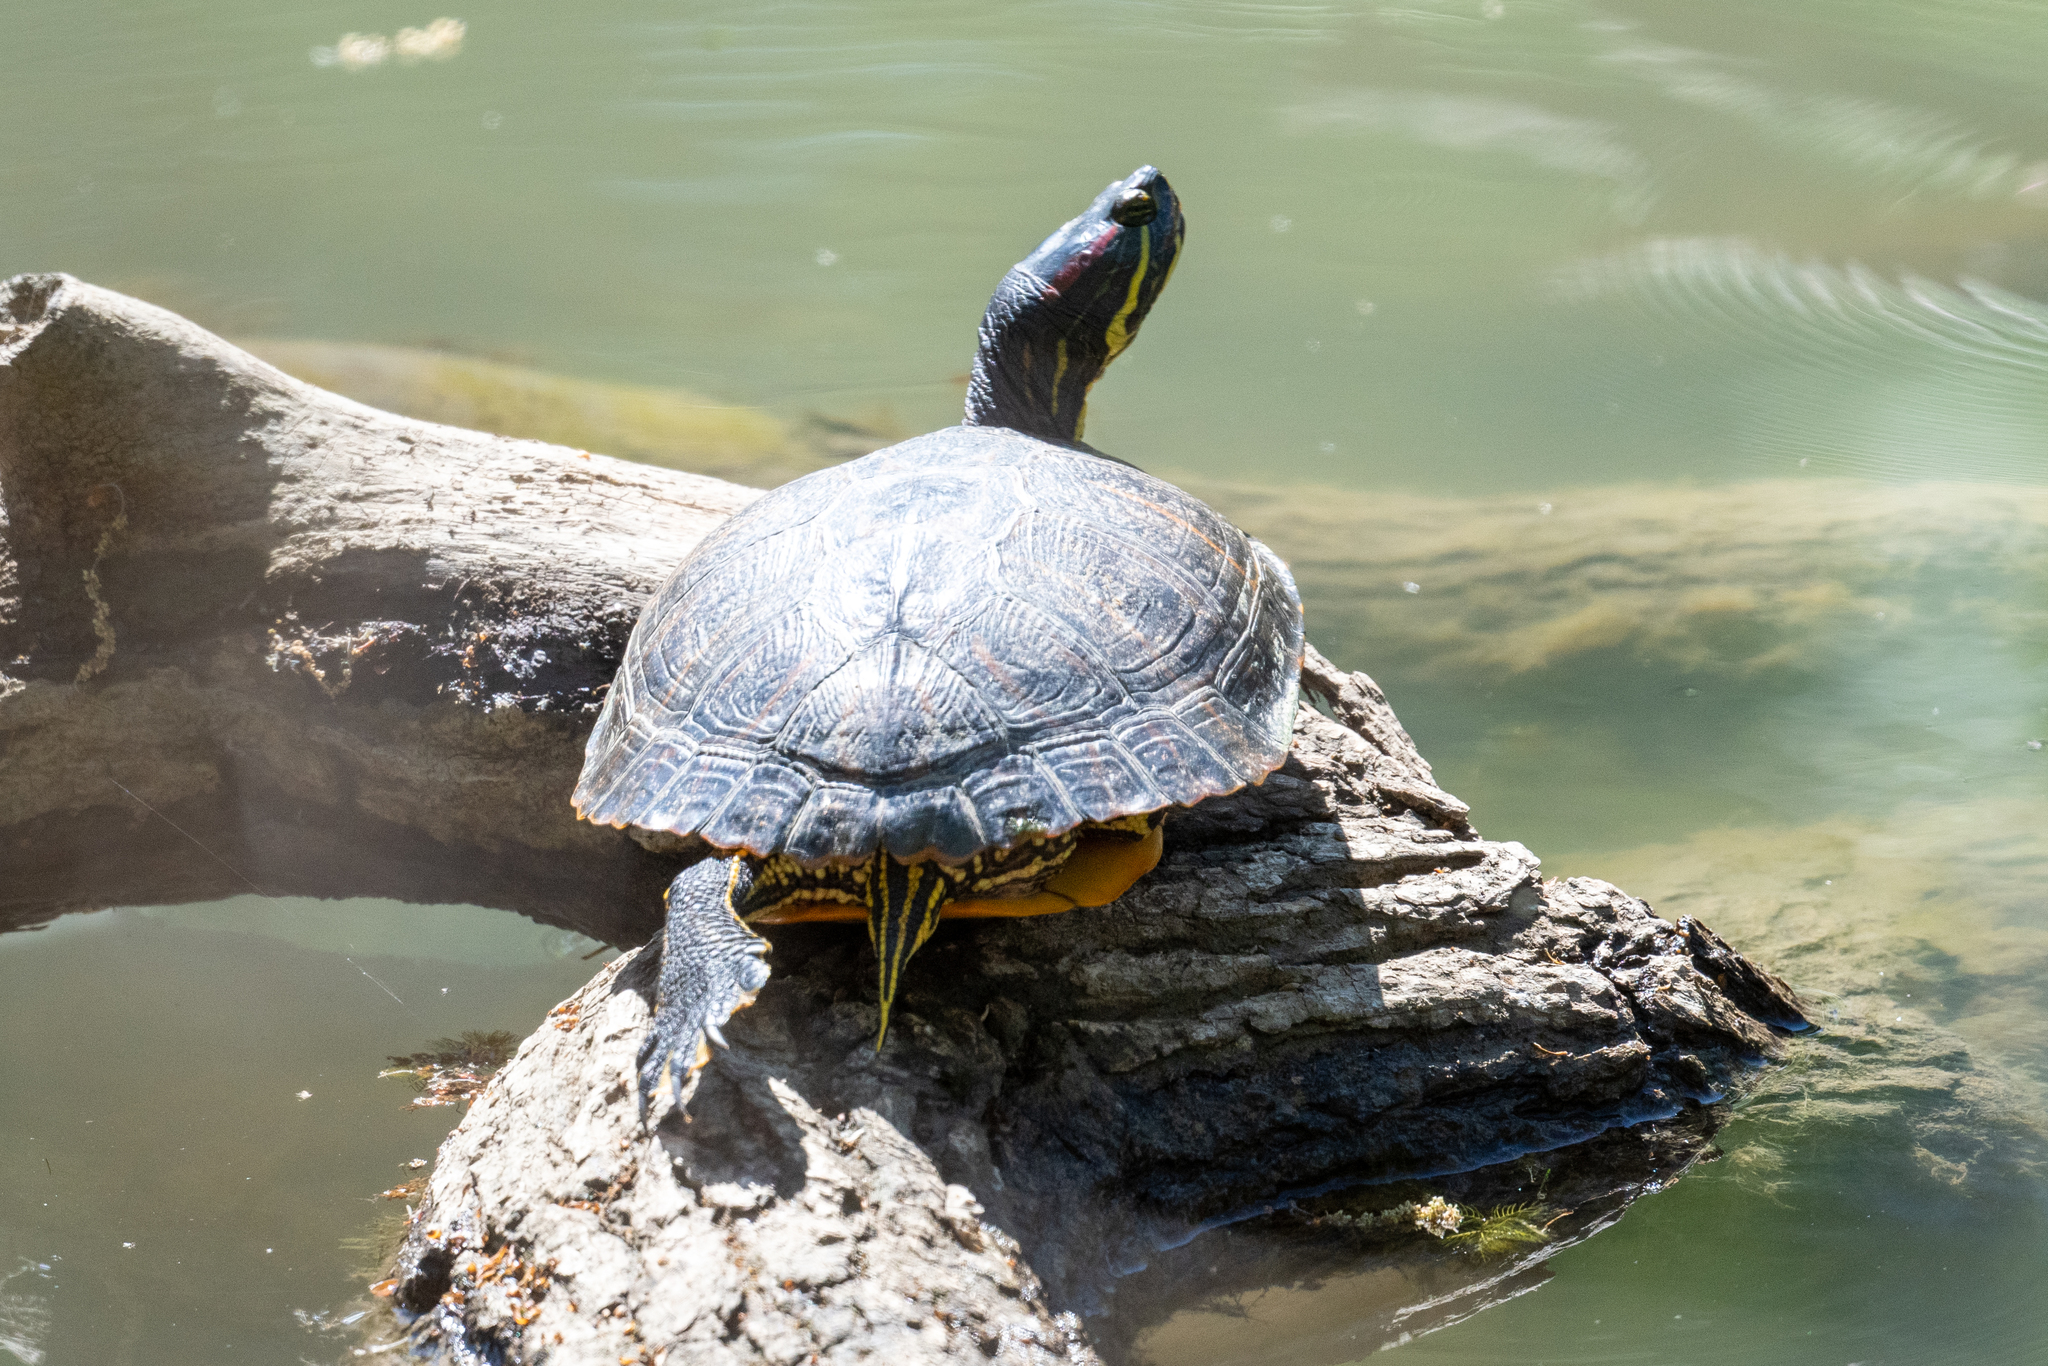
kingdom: Animalia
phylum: Chordata
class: Testudines
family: Emydidae
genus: Trachemys
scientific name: Trachemys scripta
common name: Slider
